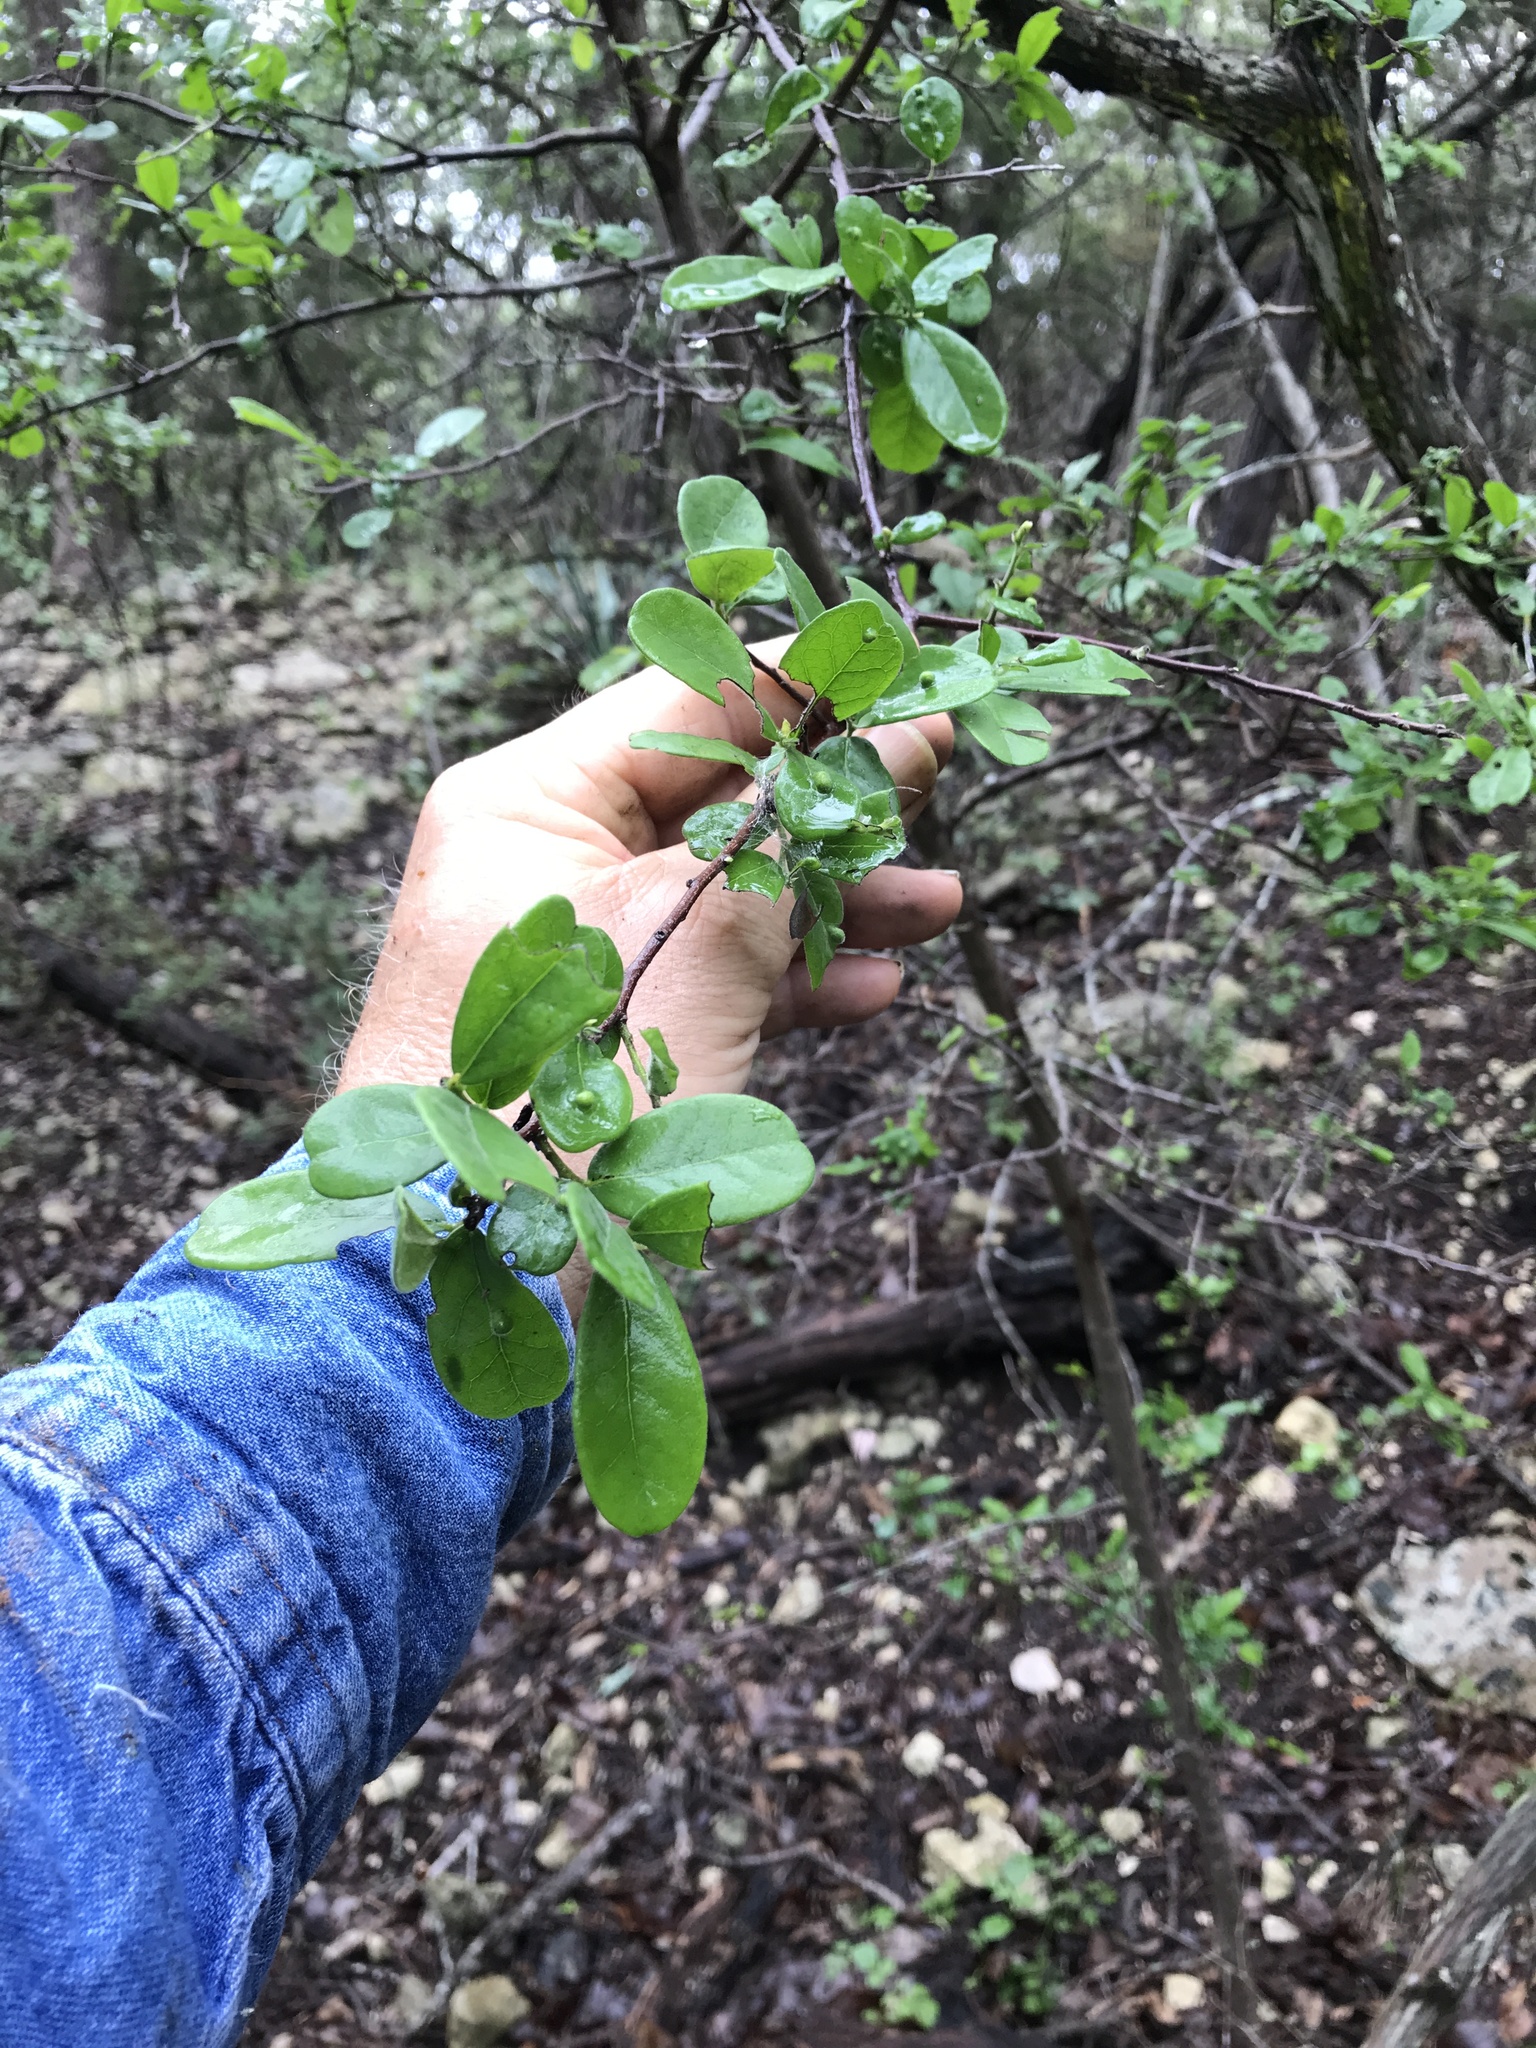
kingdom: Plantae
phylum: Tracheophyta
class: Magnoliopsida
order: Ericales
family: Ebenaceae
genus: Diospyros
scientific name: Diospyros texana
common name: Texas persimmon
